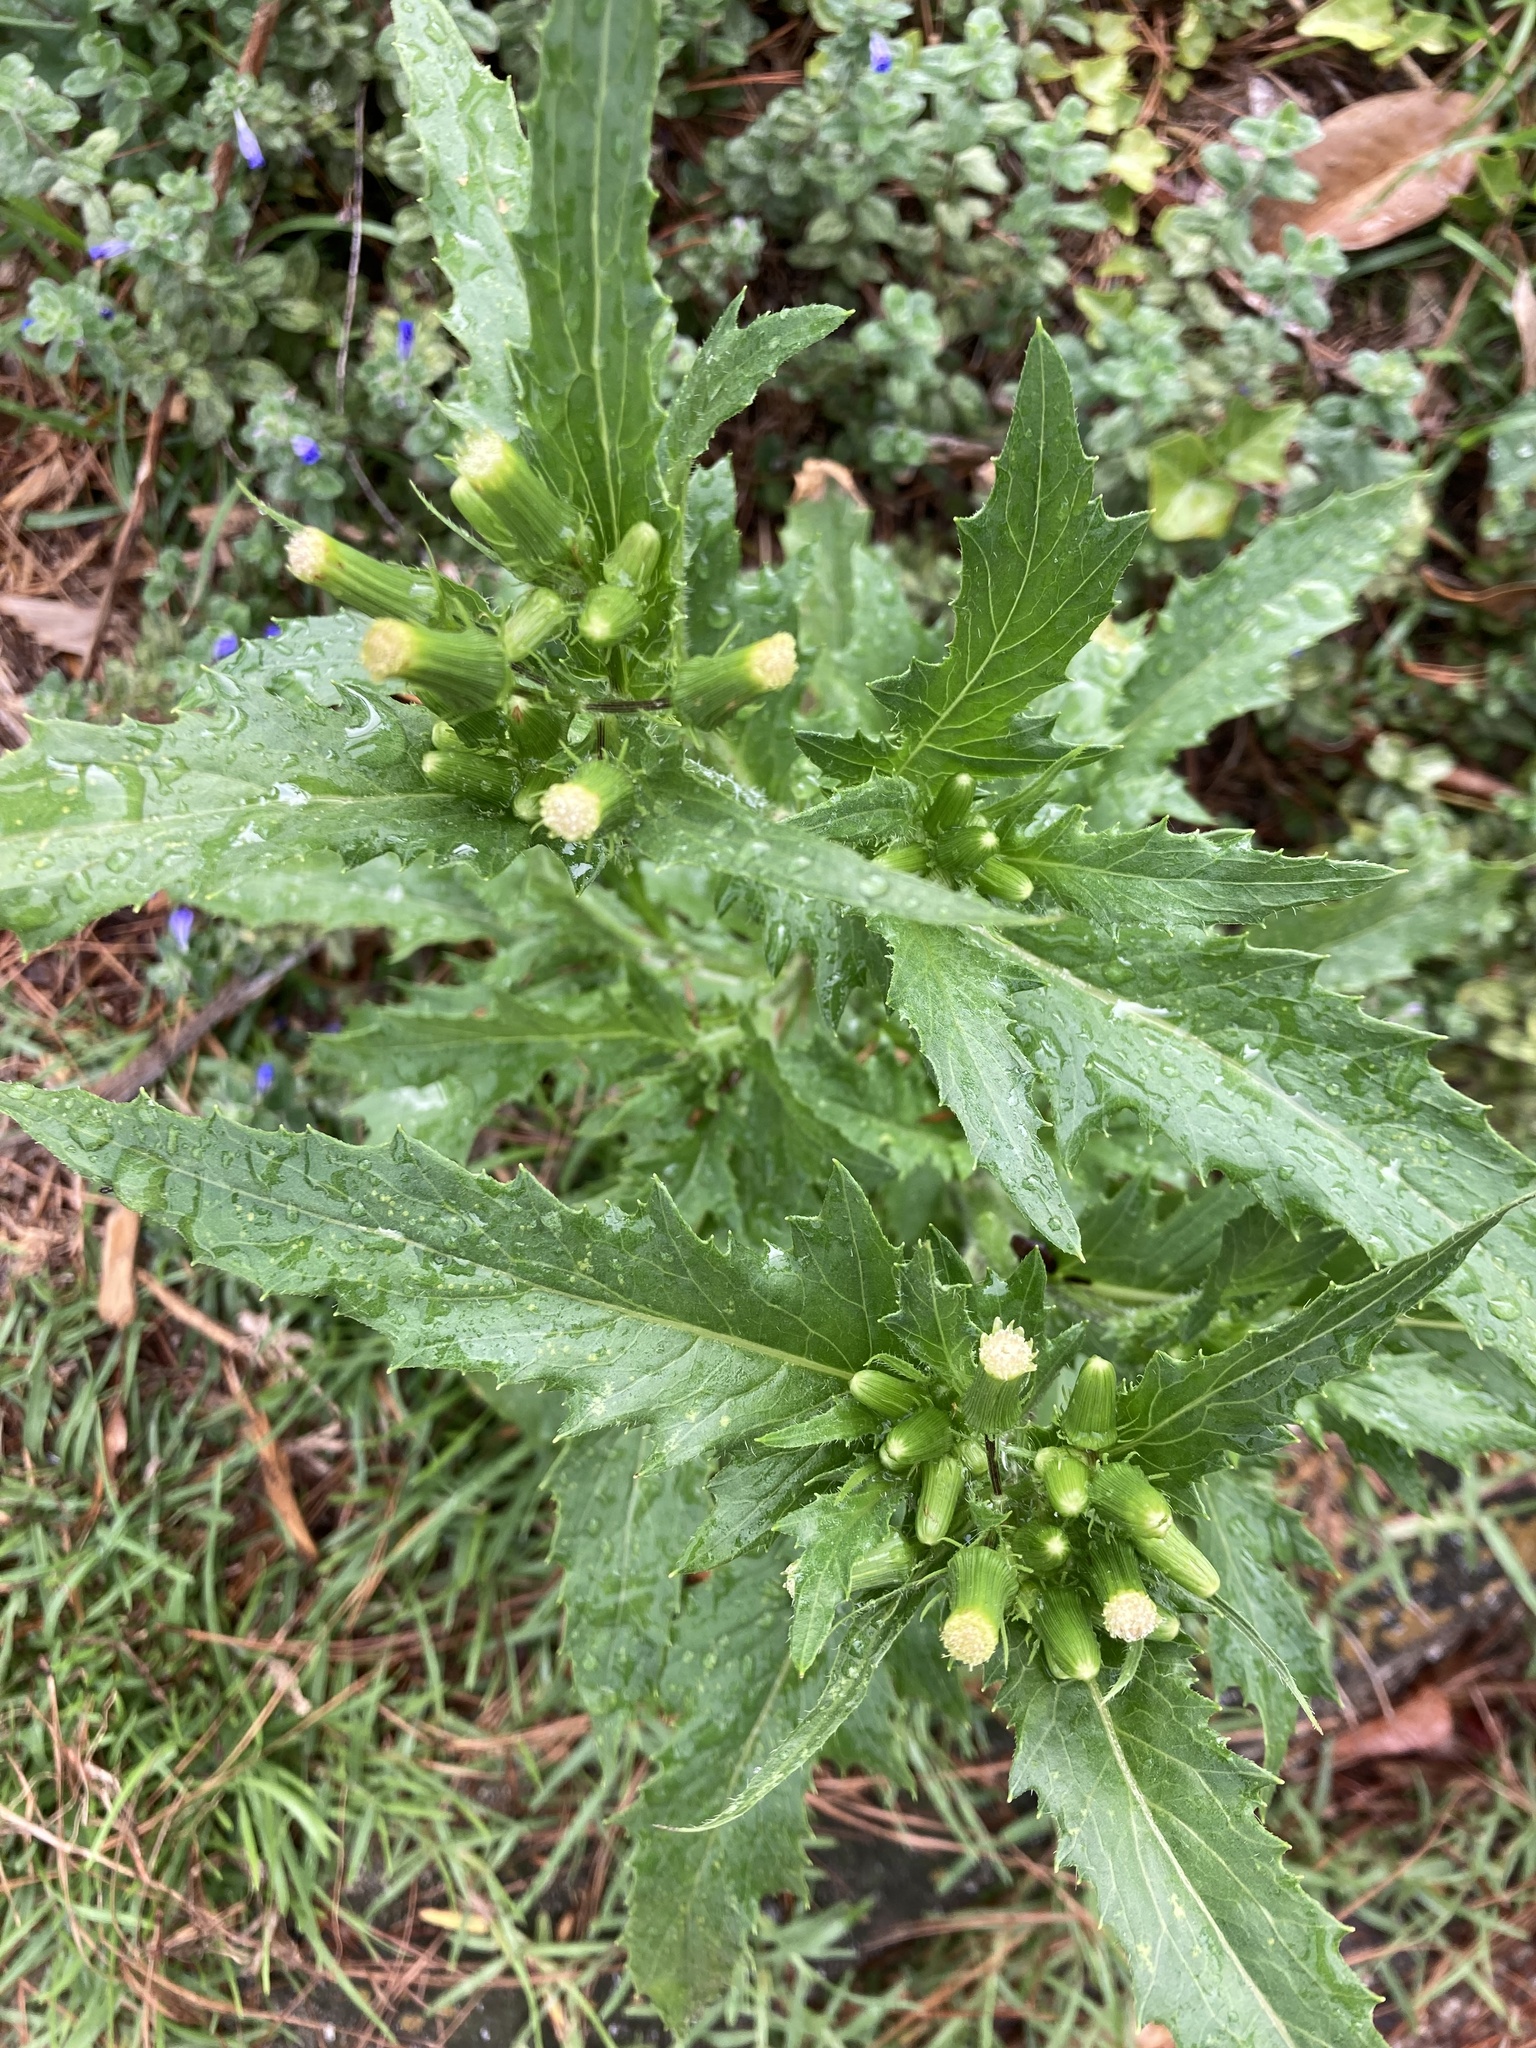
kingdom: Plantae
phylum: Tracheophyta
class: Magnoliopsida
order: Asterales
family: Asteraceae
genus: Erechtites
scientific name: Erechtites hieraciifolius
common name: American burnweed
